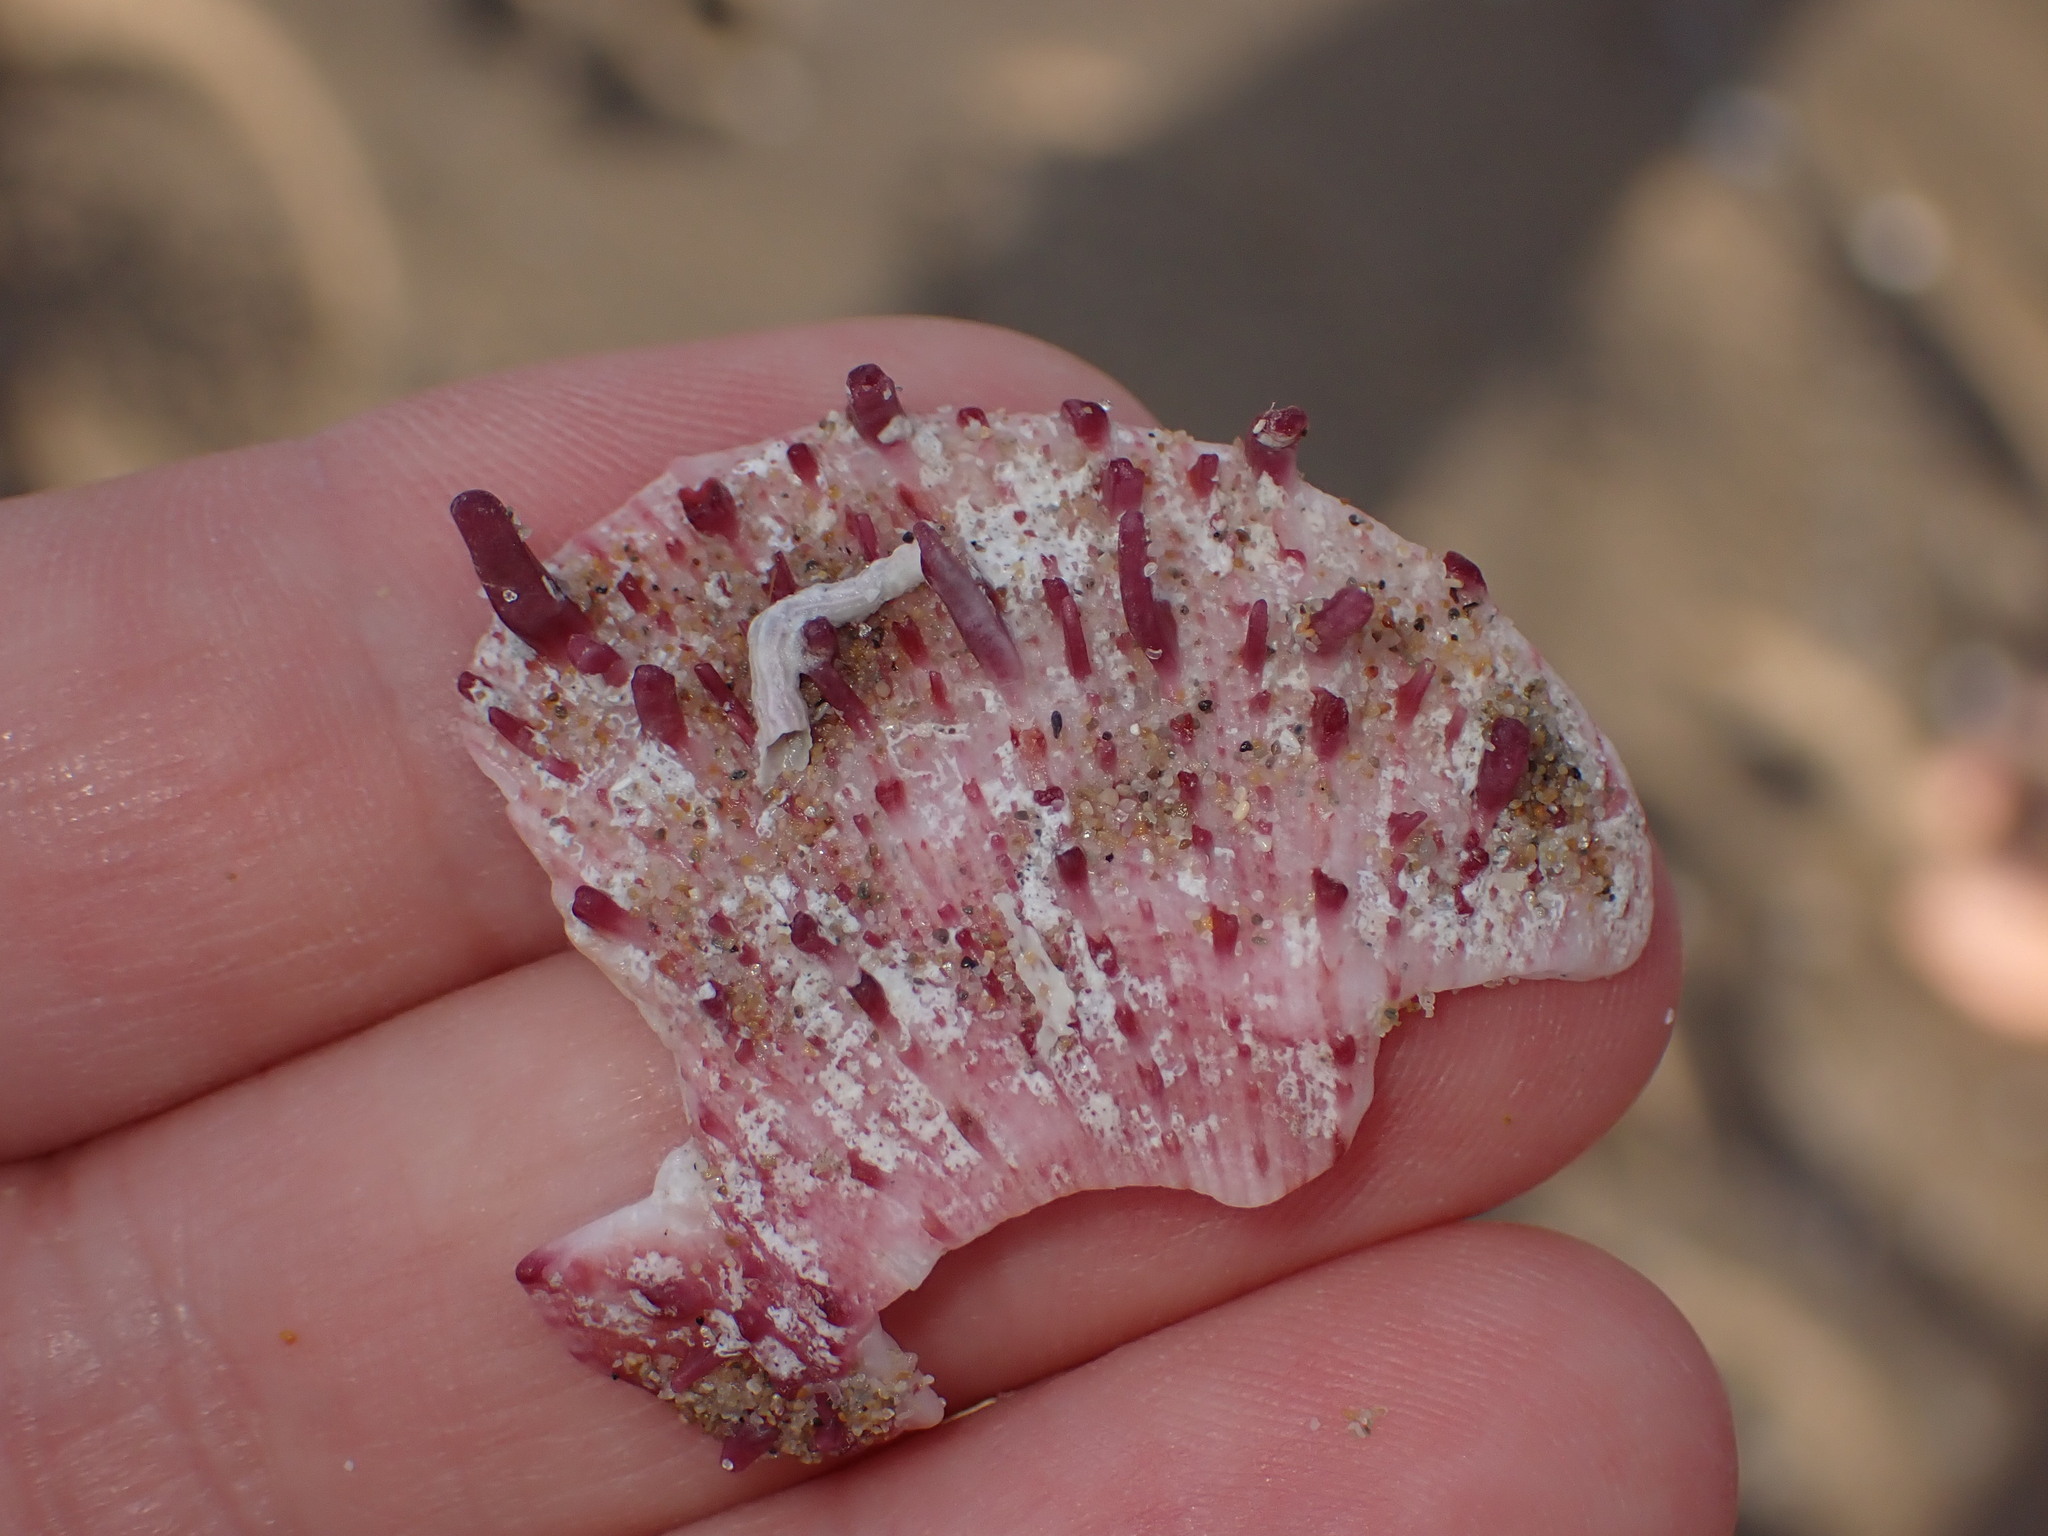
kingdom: Animalia
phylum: Mollusca
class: Bivalvia
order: Pectinida
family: Spondylidae
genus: Spondylus
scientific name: Spondylus gaederopus
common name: European thorny oyster
